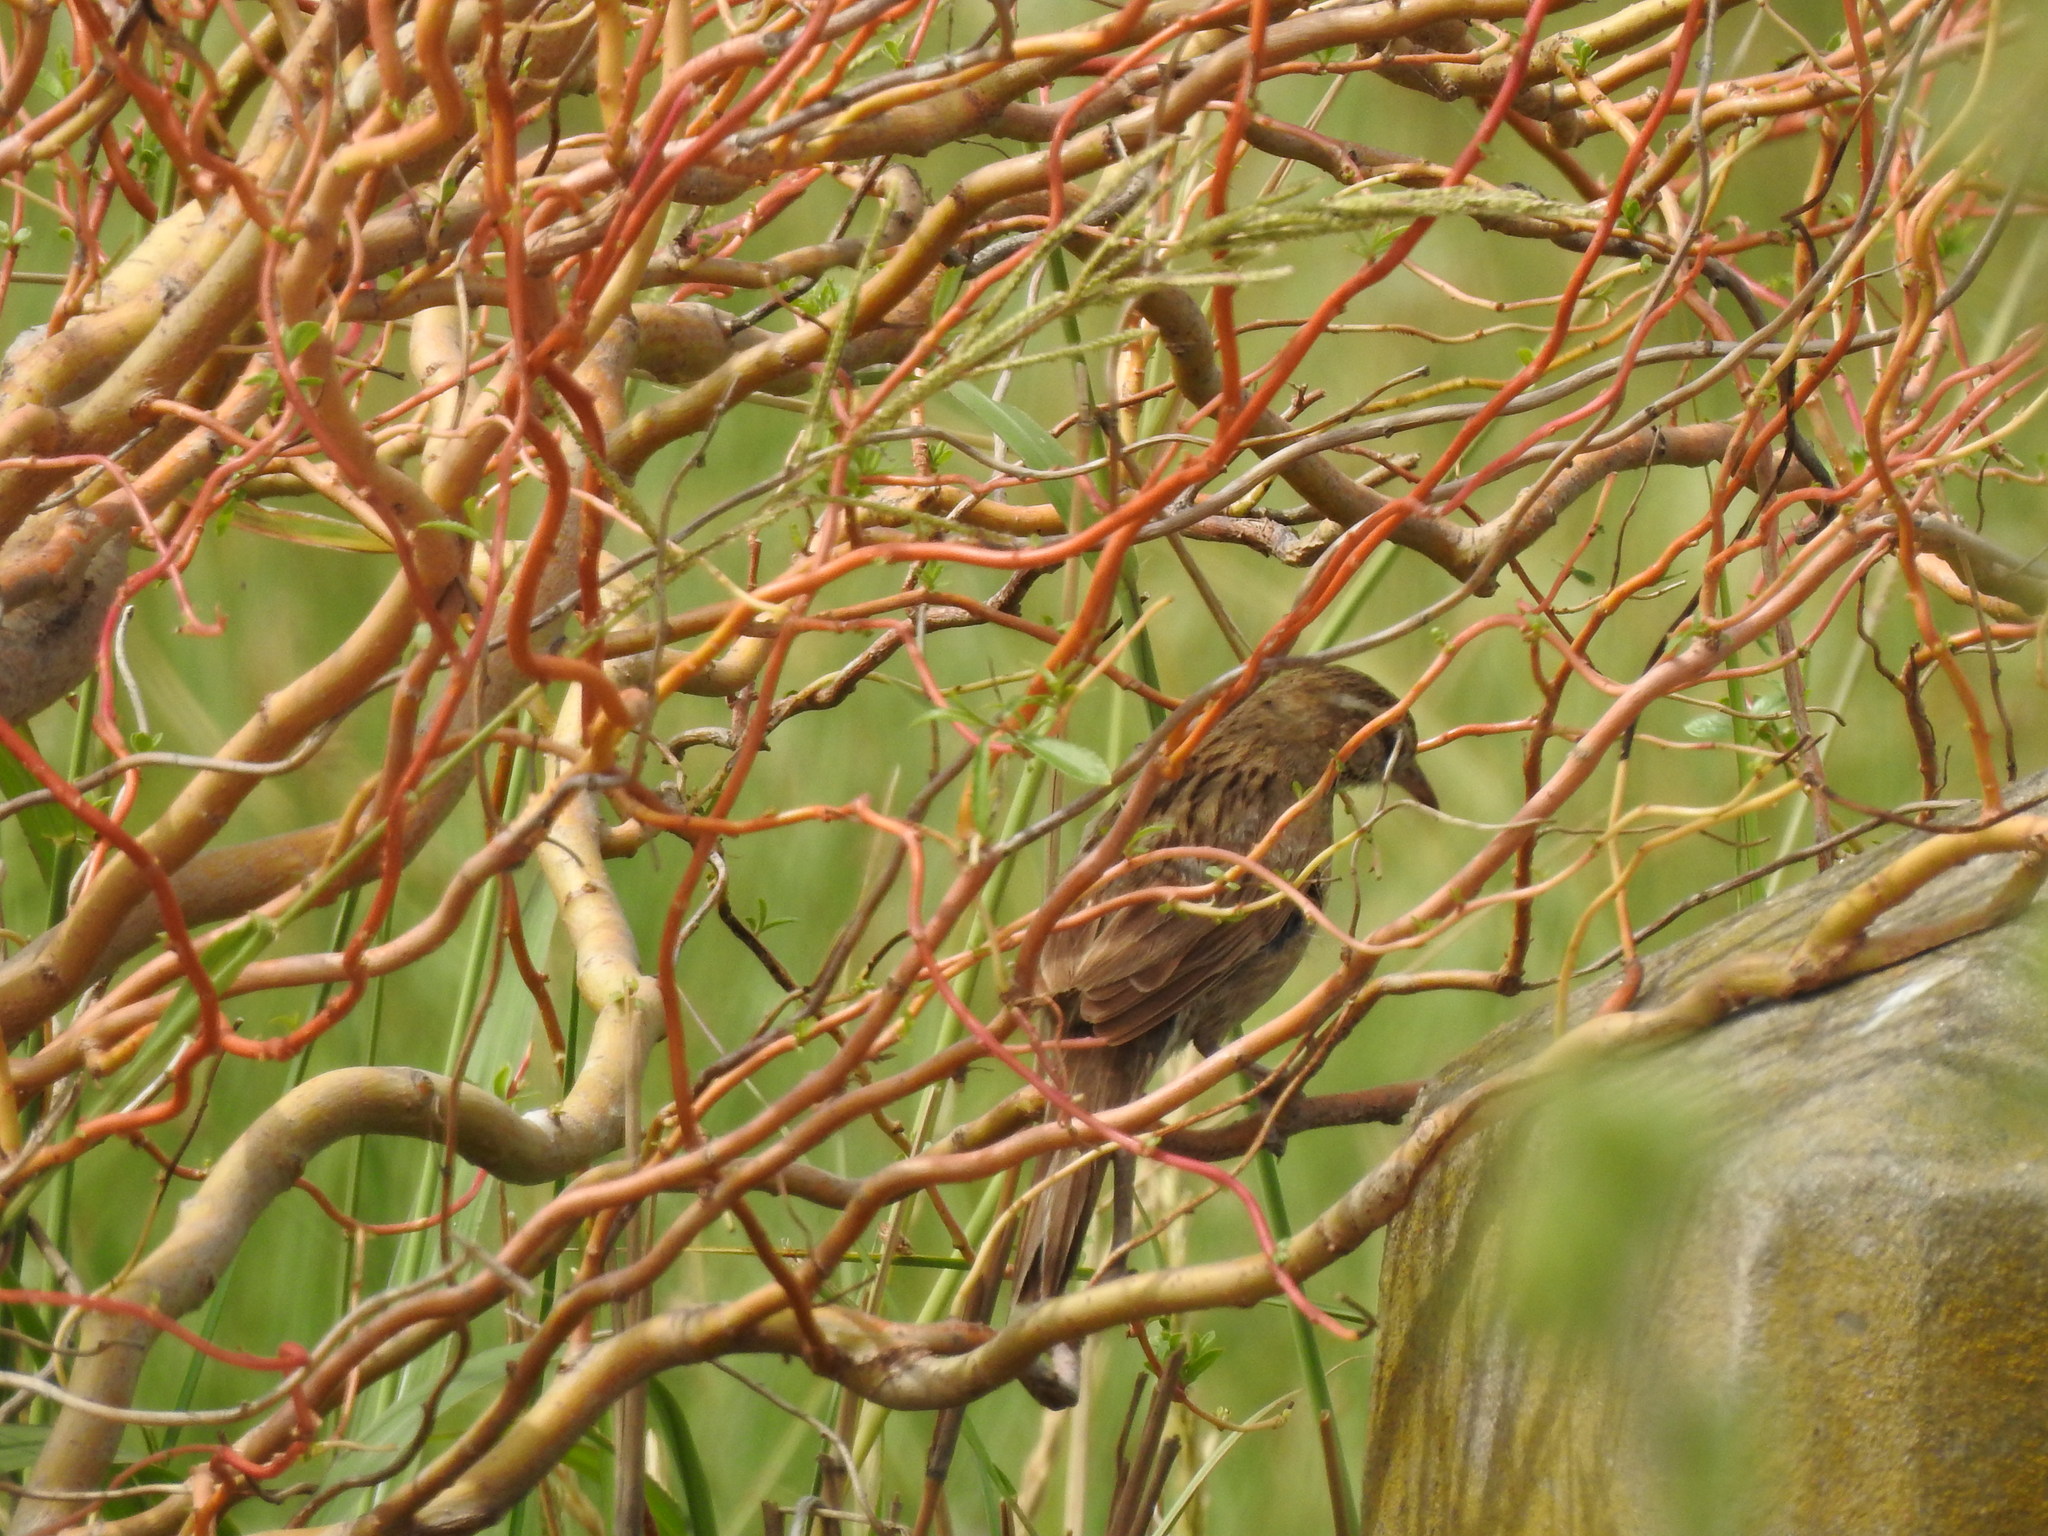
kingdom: Animalia
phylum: Chordata
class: Aves
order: Passeriformes
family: Furnariidae
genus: Anumbius
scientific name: Anumbius annumbi
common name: Firewood-gatherer
